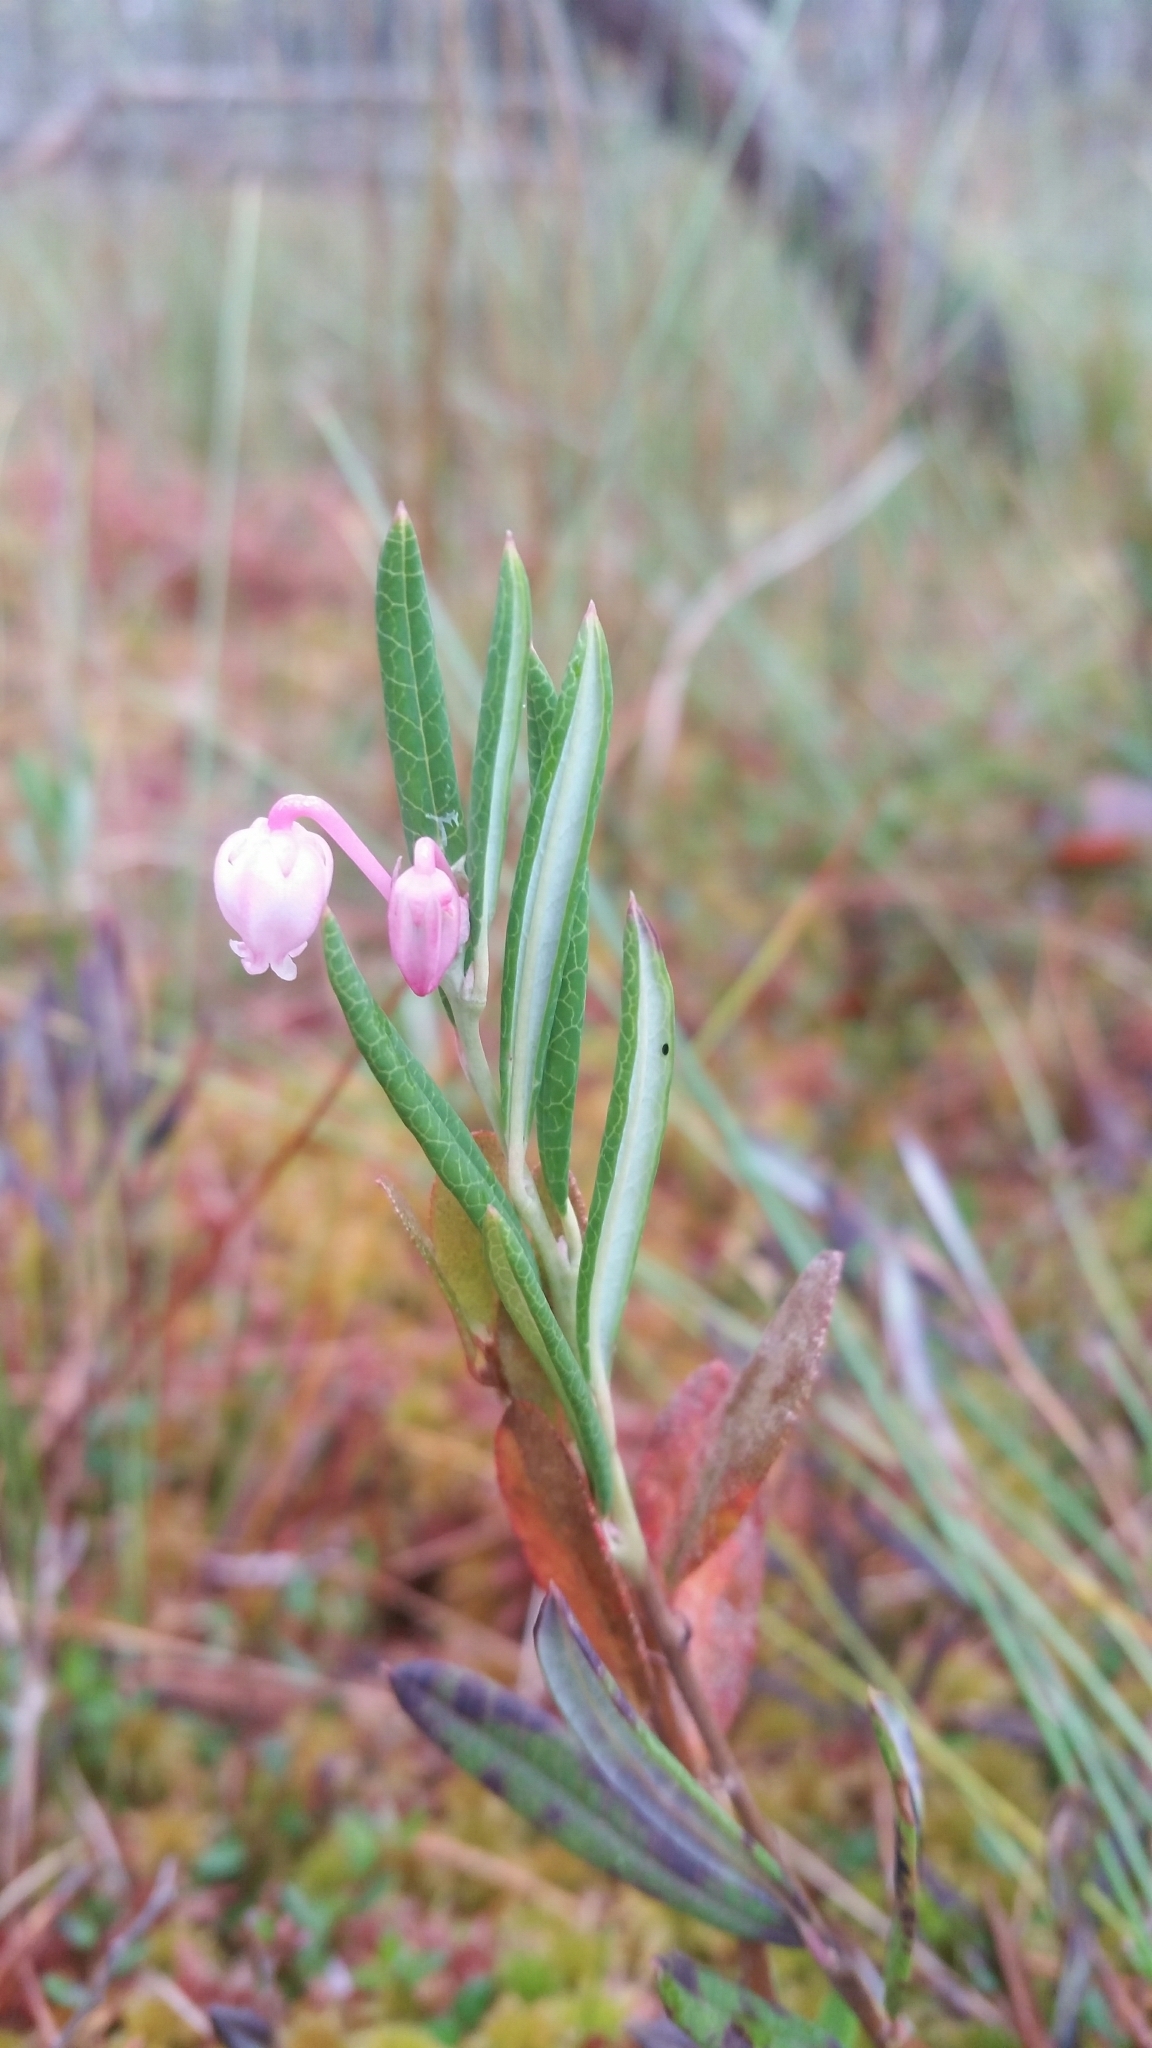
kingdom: Plantae
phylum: Tracheophyta
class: Magnoliopsida
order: Ericales
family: Ericaceae
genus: Andromeda
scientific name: Andromeda polifolia
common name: Bog-rosemary
